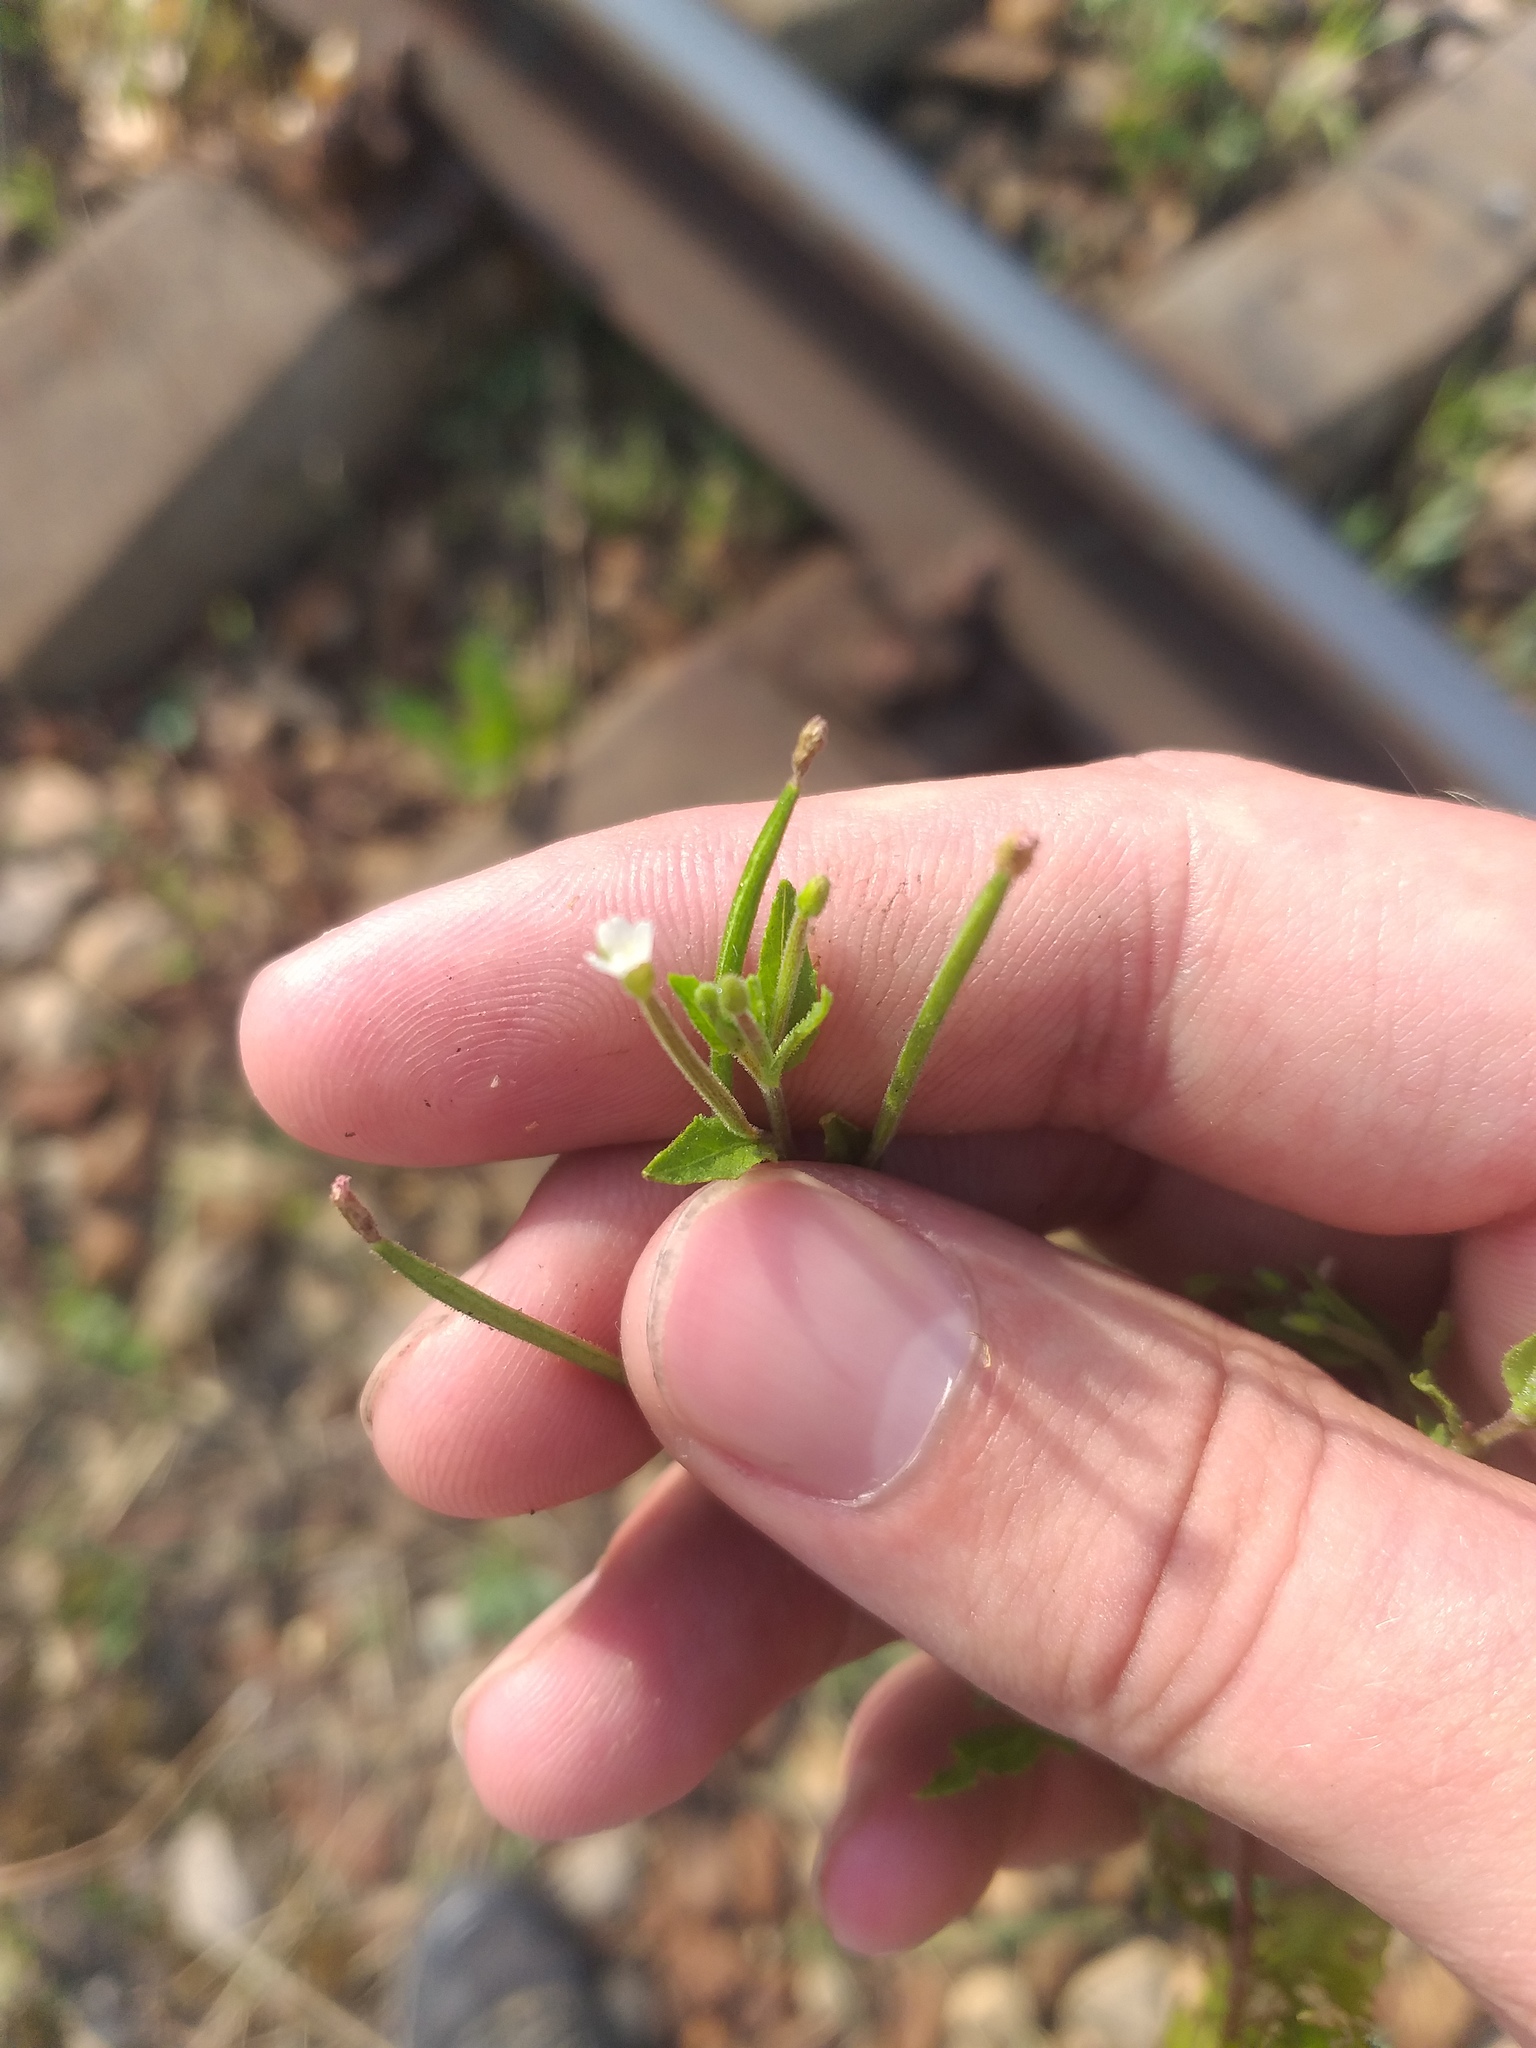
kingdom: Plantae
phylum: Tracheophyta
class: Magnoliopsida
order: Myrtales
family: Onagraceae
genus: Epilobium
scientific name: Epilobium pseudorubescens
